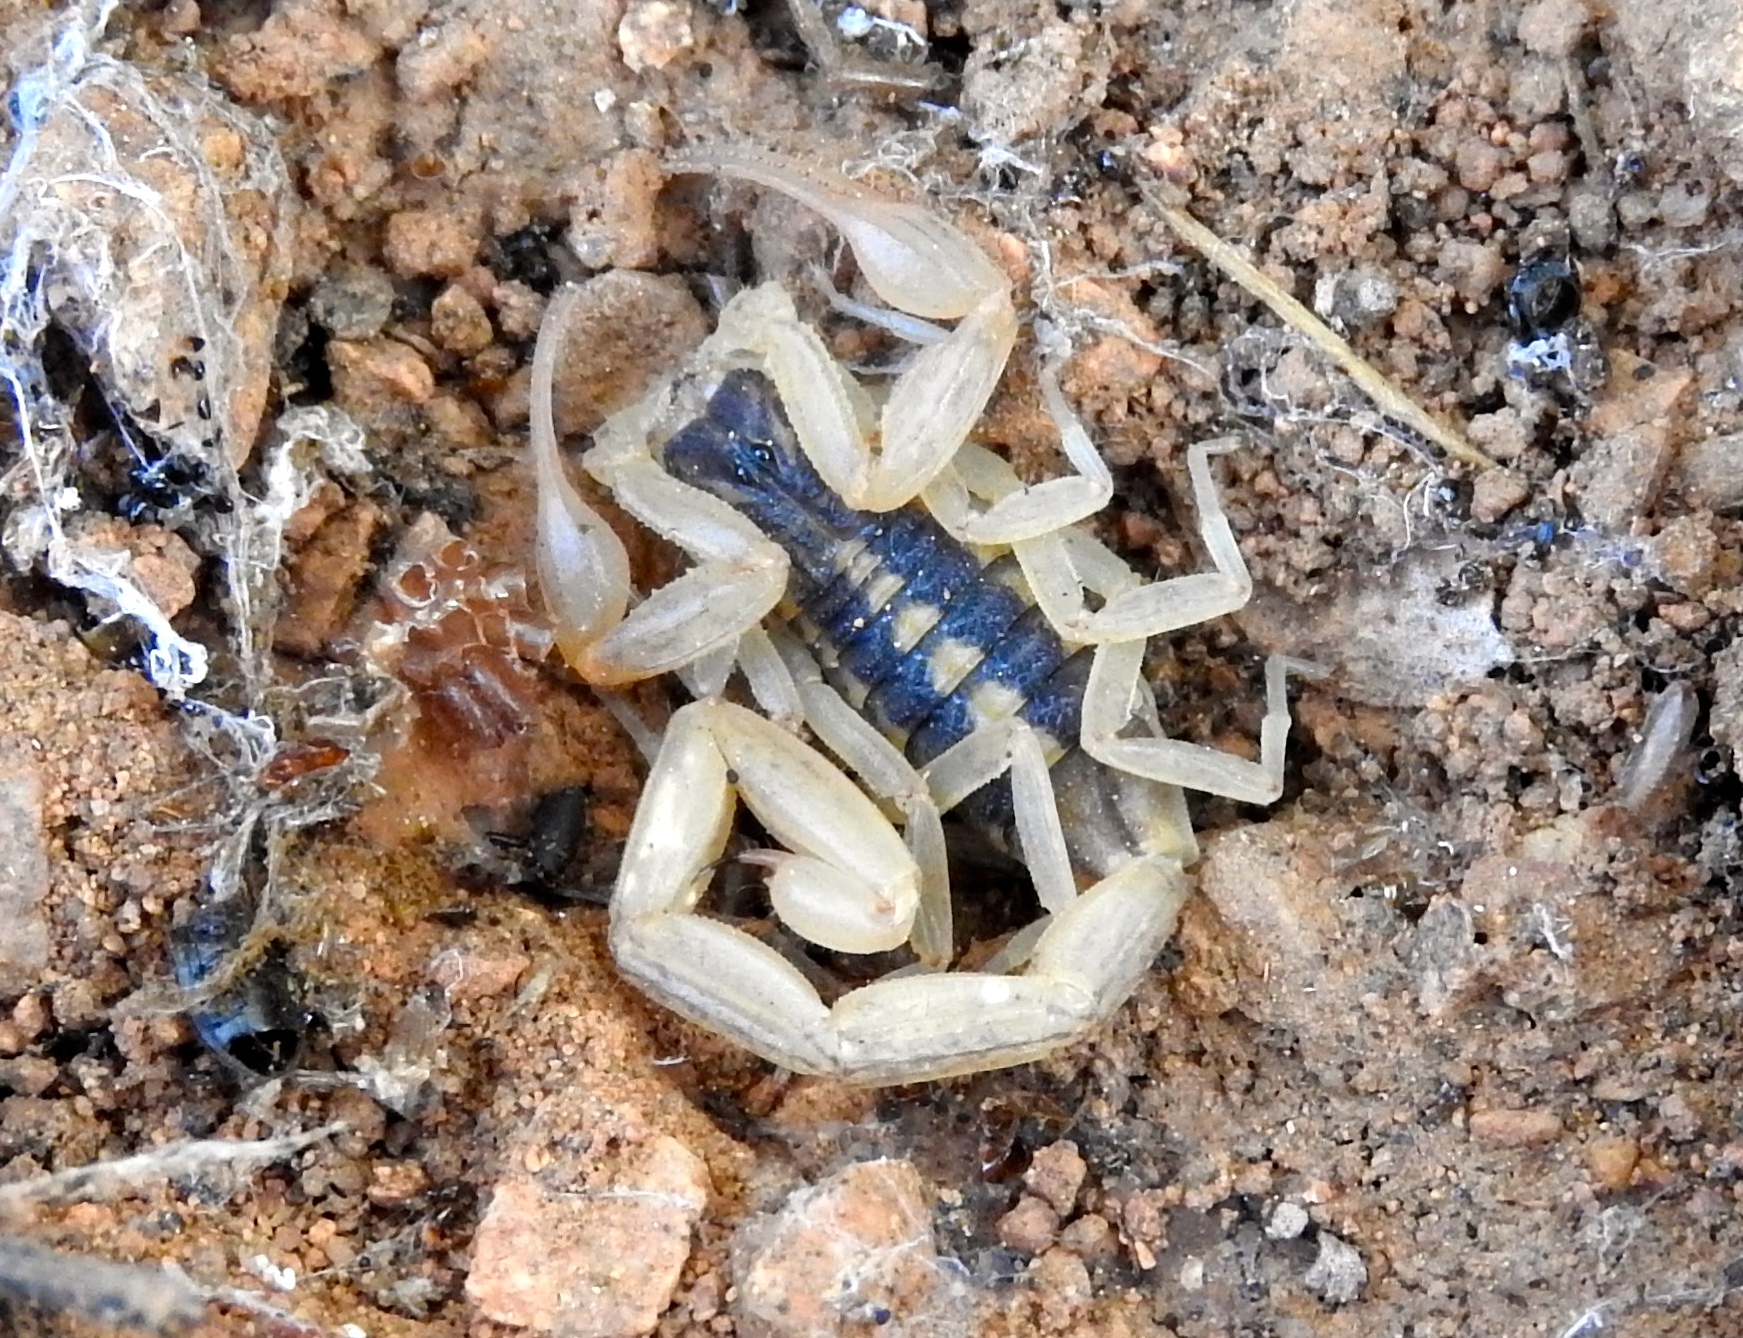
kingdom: Animalia
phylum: Arthropoda
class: Arachnida
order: Scorpiones
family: Buthidae
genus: Centruroides
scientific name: Centruroides baldazoi
